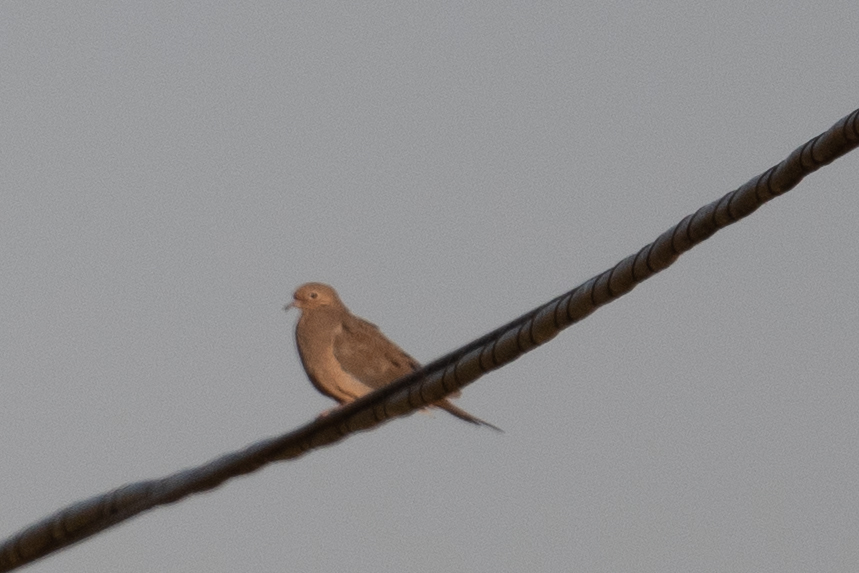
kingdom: Animalia
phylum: Chordata
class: Aves
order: Columbiformes
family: Columbidae
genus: Zenaida
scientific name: Zenaida macroura
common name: Mourning dove
